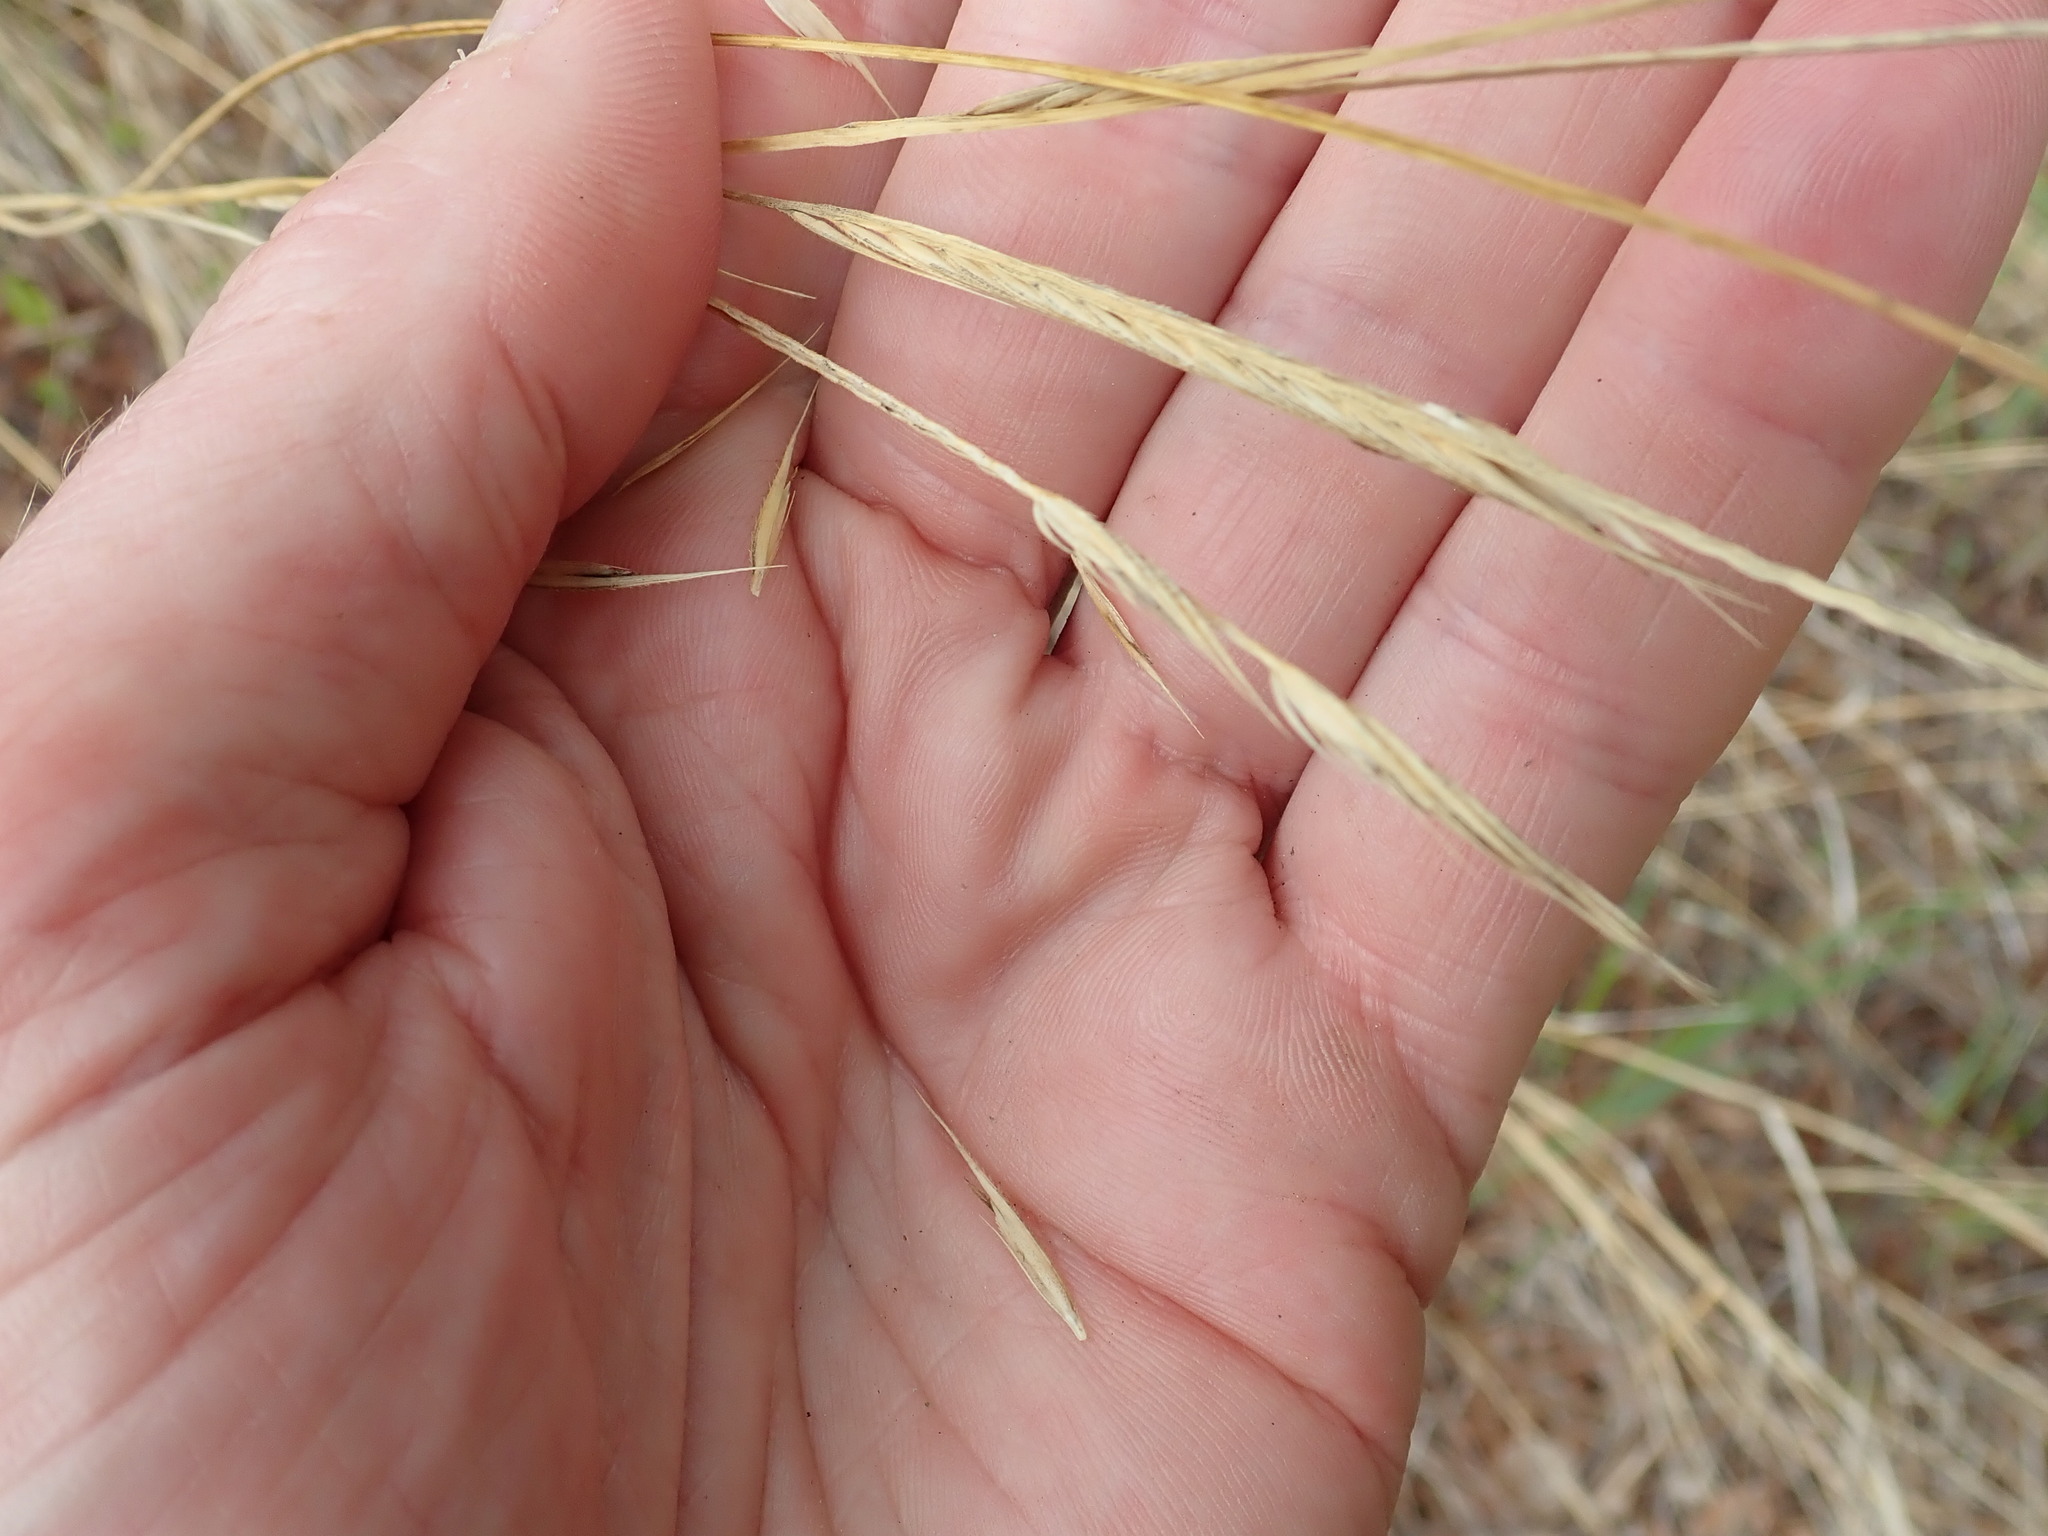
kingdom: Plantae
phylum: Tracheophyta
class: Liliopsida
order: Poales
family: Poaceae
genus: Sporobolus
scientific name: Sporobolus michauxianus
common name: Freshwater cordgrass
